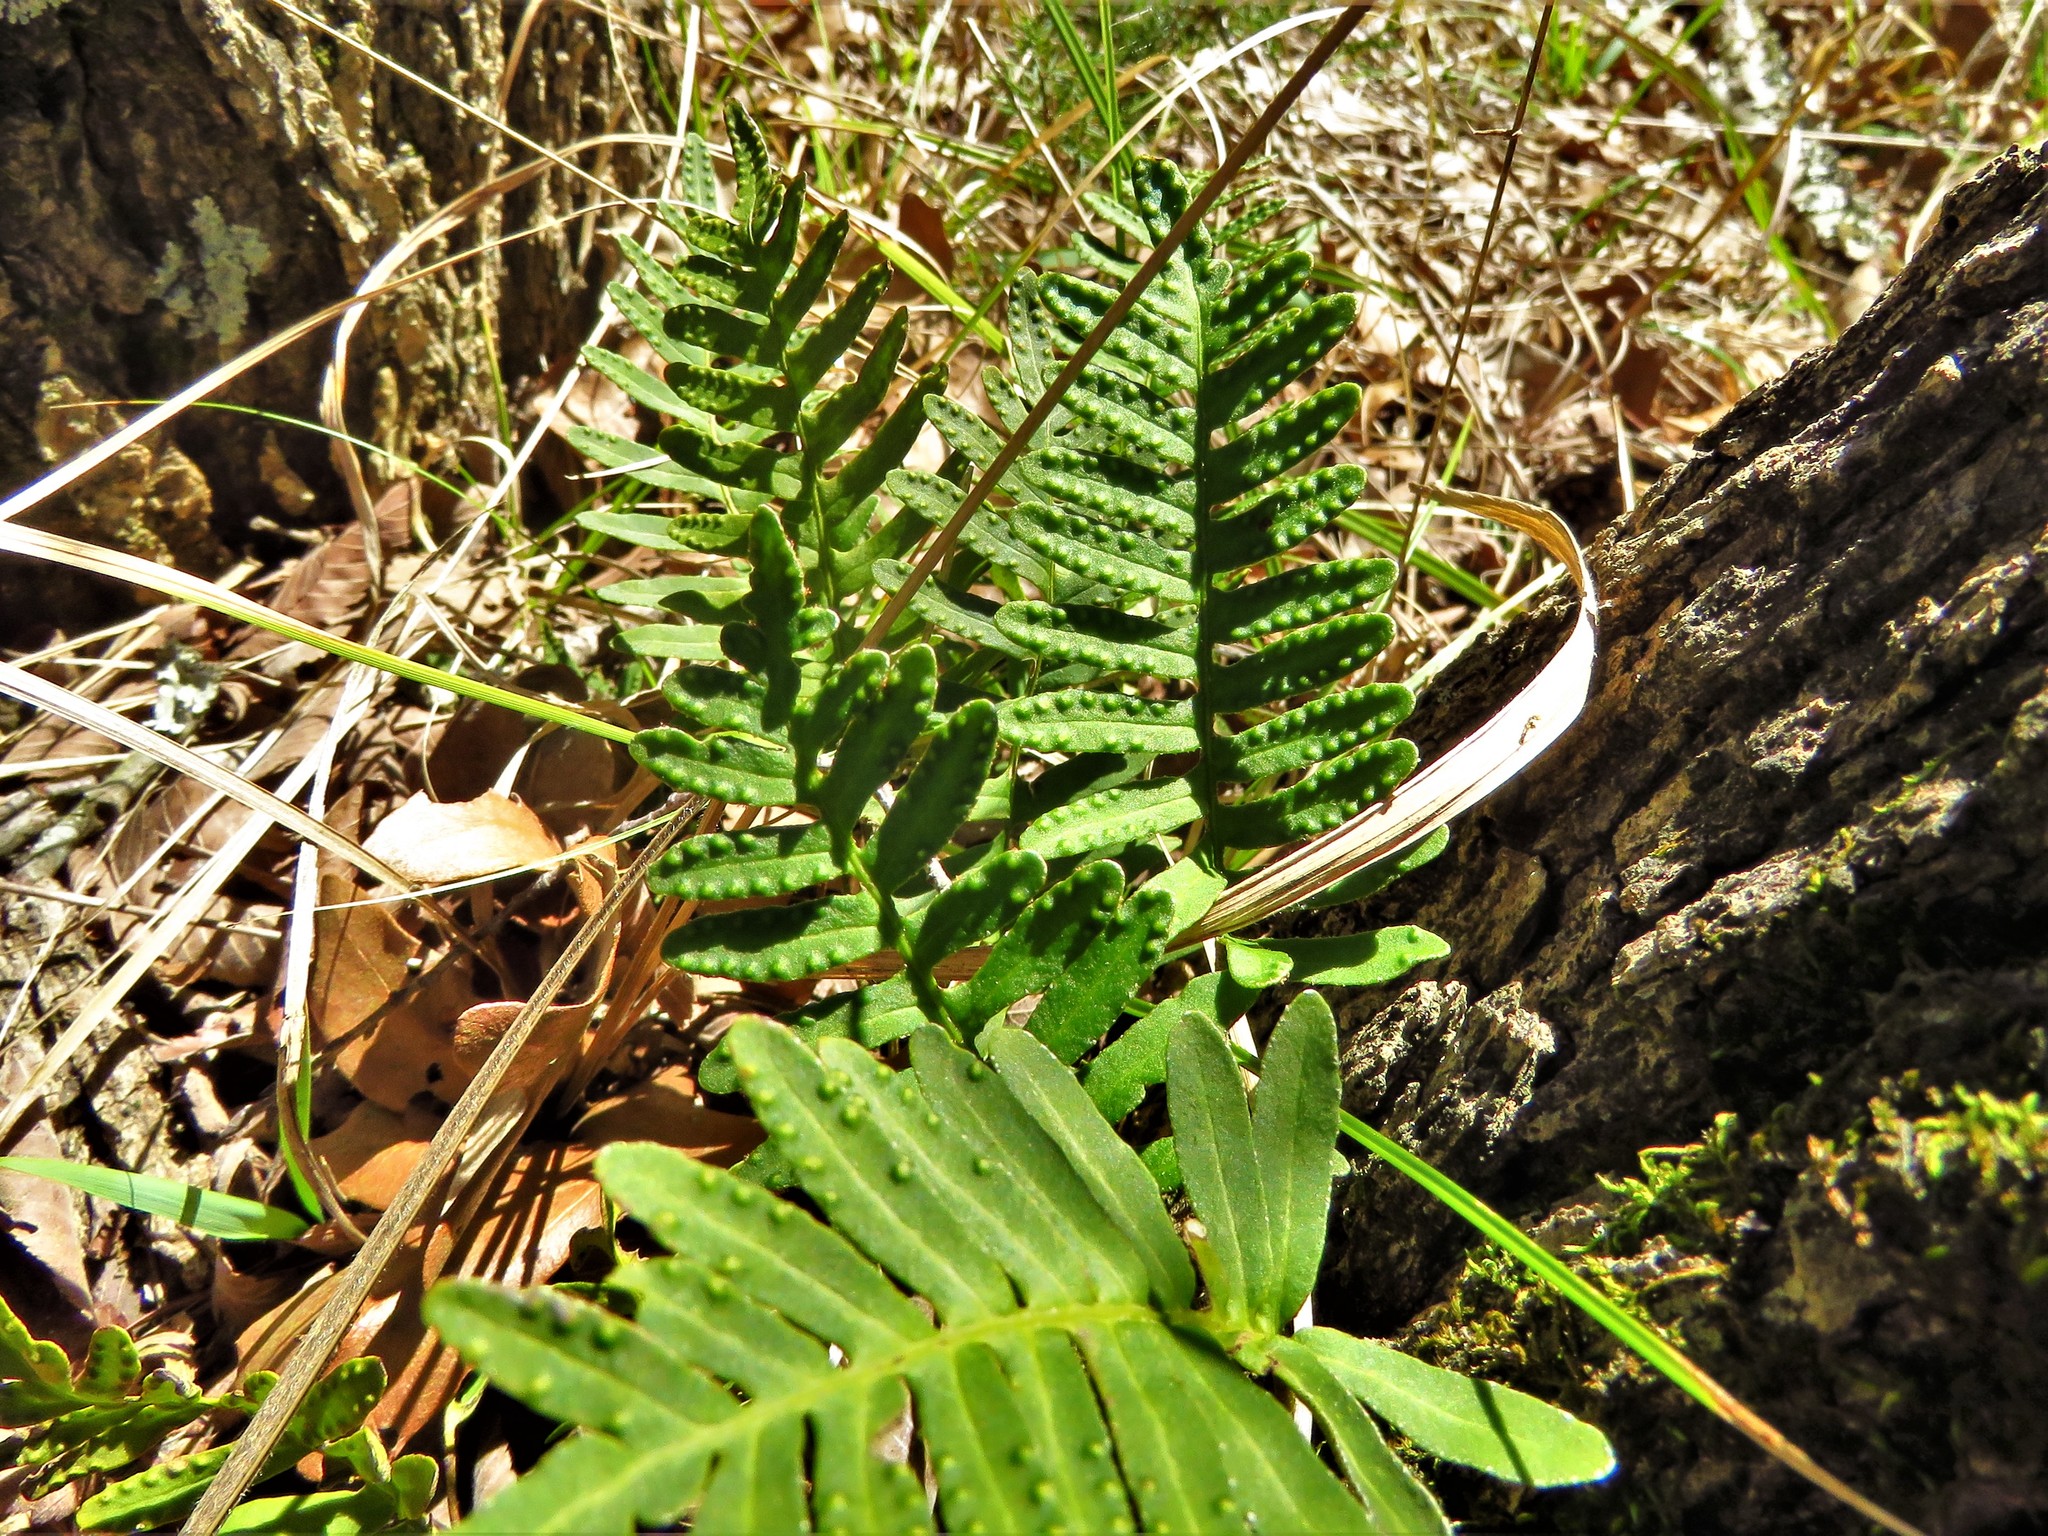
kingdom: Plantae
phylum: Tracheophyta
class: Polypodiopsida
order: Polypodiales
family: Polypodiaceae
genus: Pleopeltis
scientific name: Pleopeltis michauxiana
